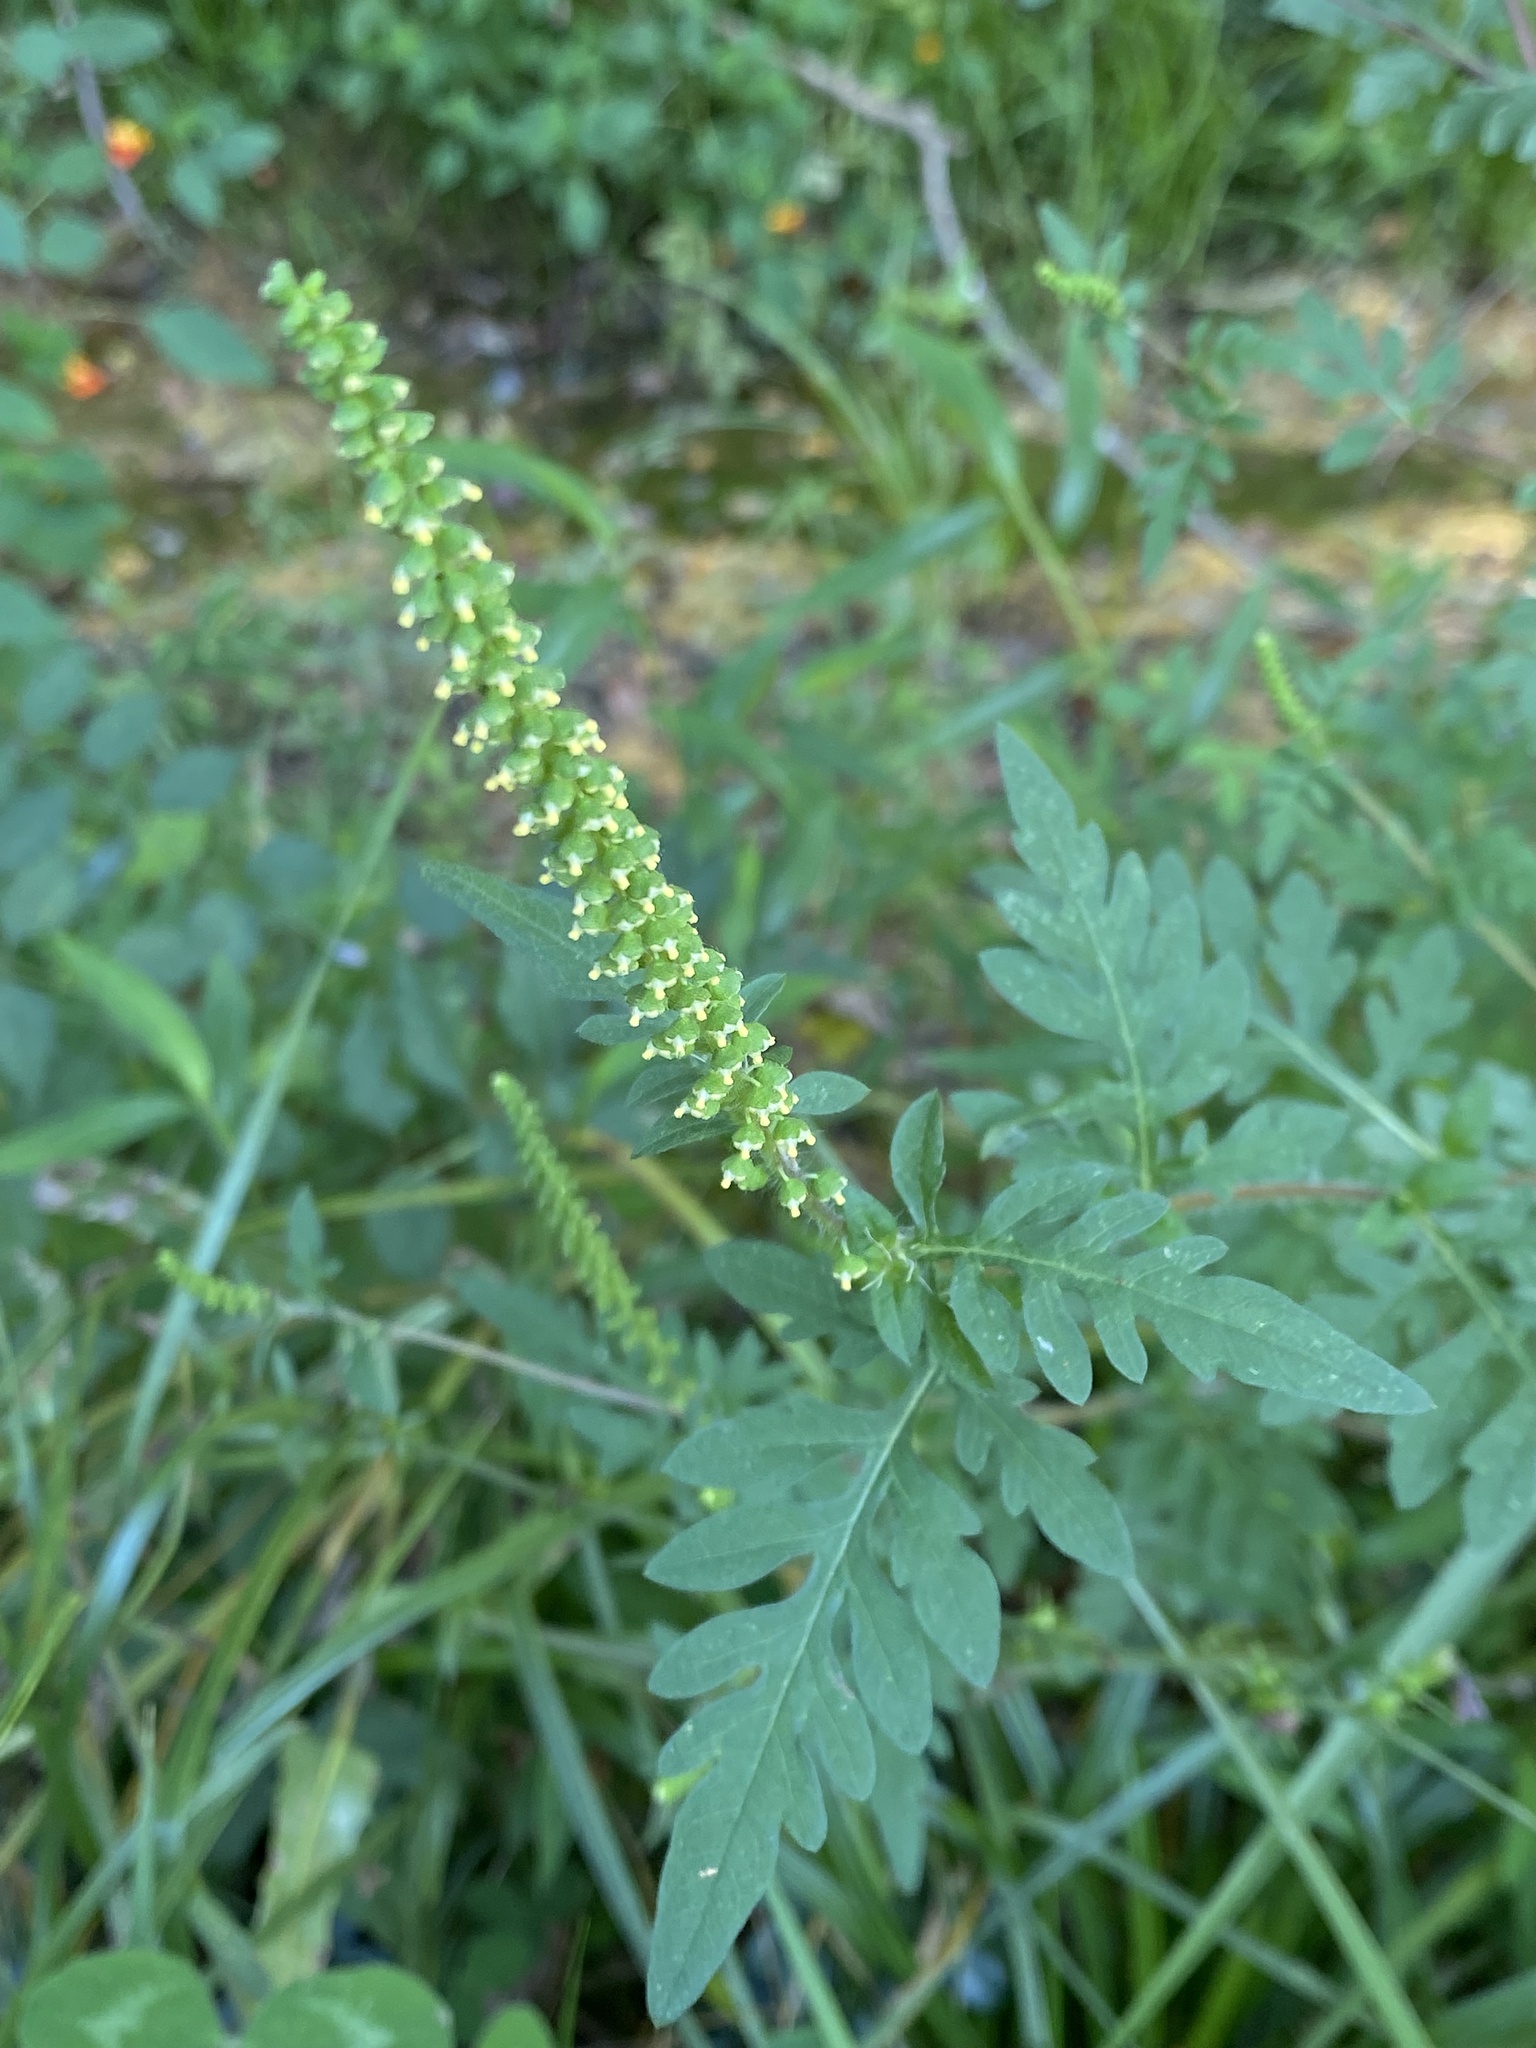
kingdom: Plantae
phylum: Tracheophyta
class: Magnoliopsida
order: Asterales
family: Asteraceae
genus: Ambrosia
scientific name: Ambrosia artemisiifolia
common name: Annual ragweed
